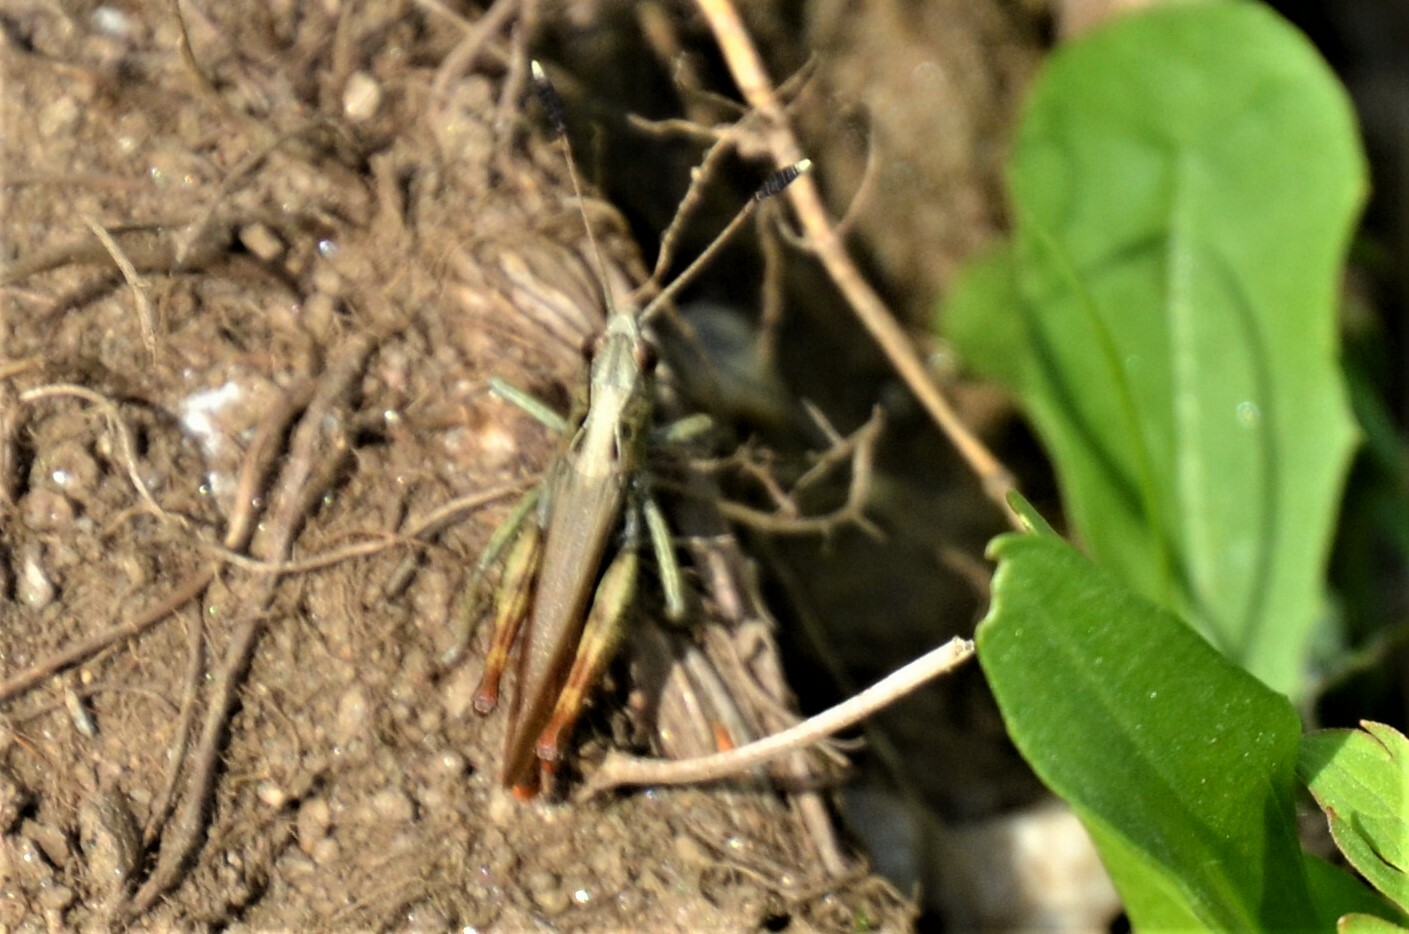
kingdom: Animalia
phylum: Arthropoda
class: Insecta
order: Orthoptera
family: Acrididae
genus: Gomphocerippus
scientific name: Gomphocerippus rufus
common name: Rufous grasshopper
